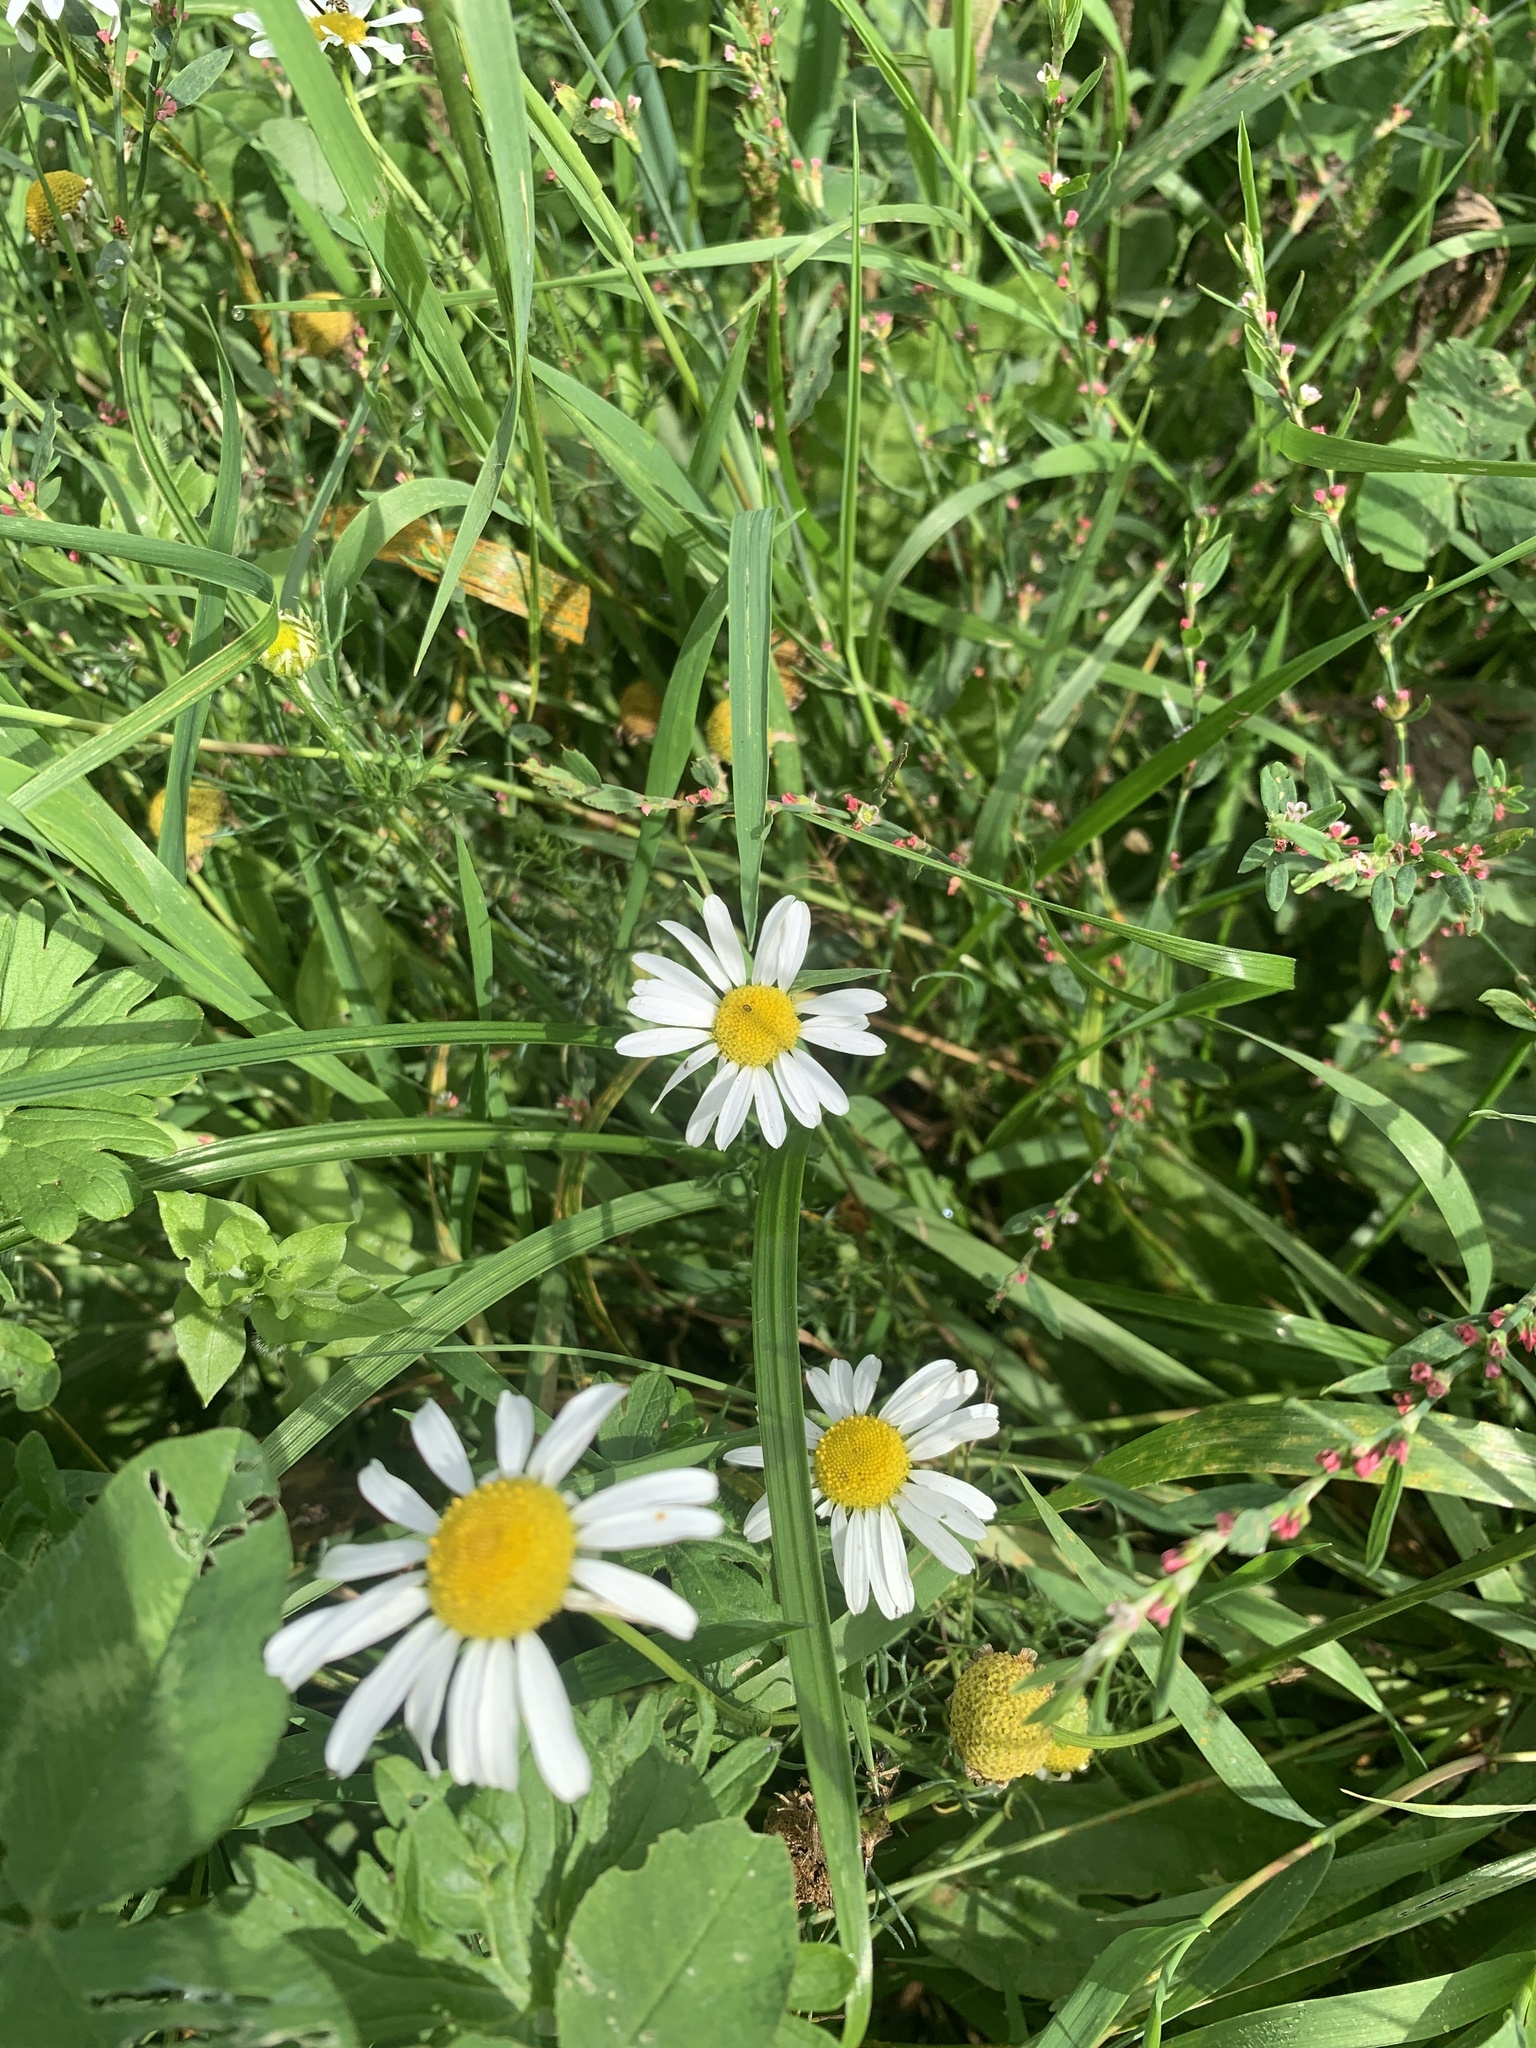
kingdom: Plantae
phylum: Tracheophyta
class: Magnoliopsida
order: Asterales
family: Asteraceae
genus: Tripleurospermum
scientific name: Tripleurospermum inodorum
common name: Scentless mayweed
